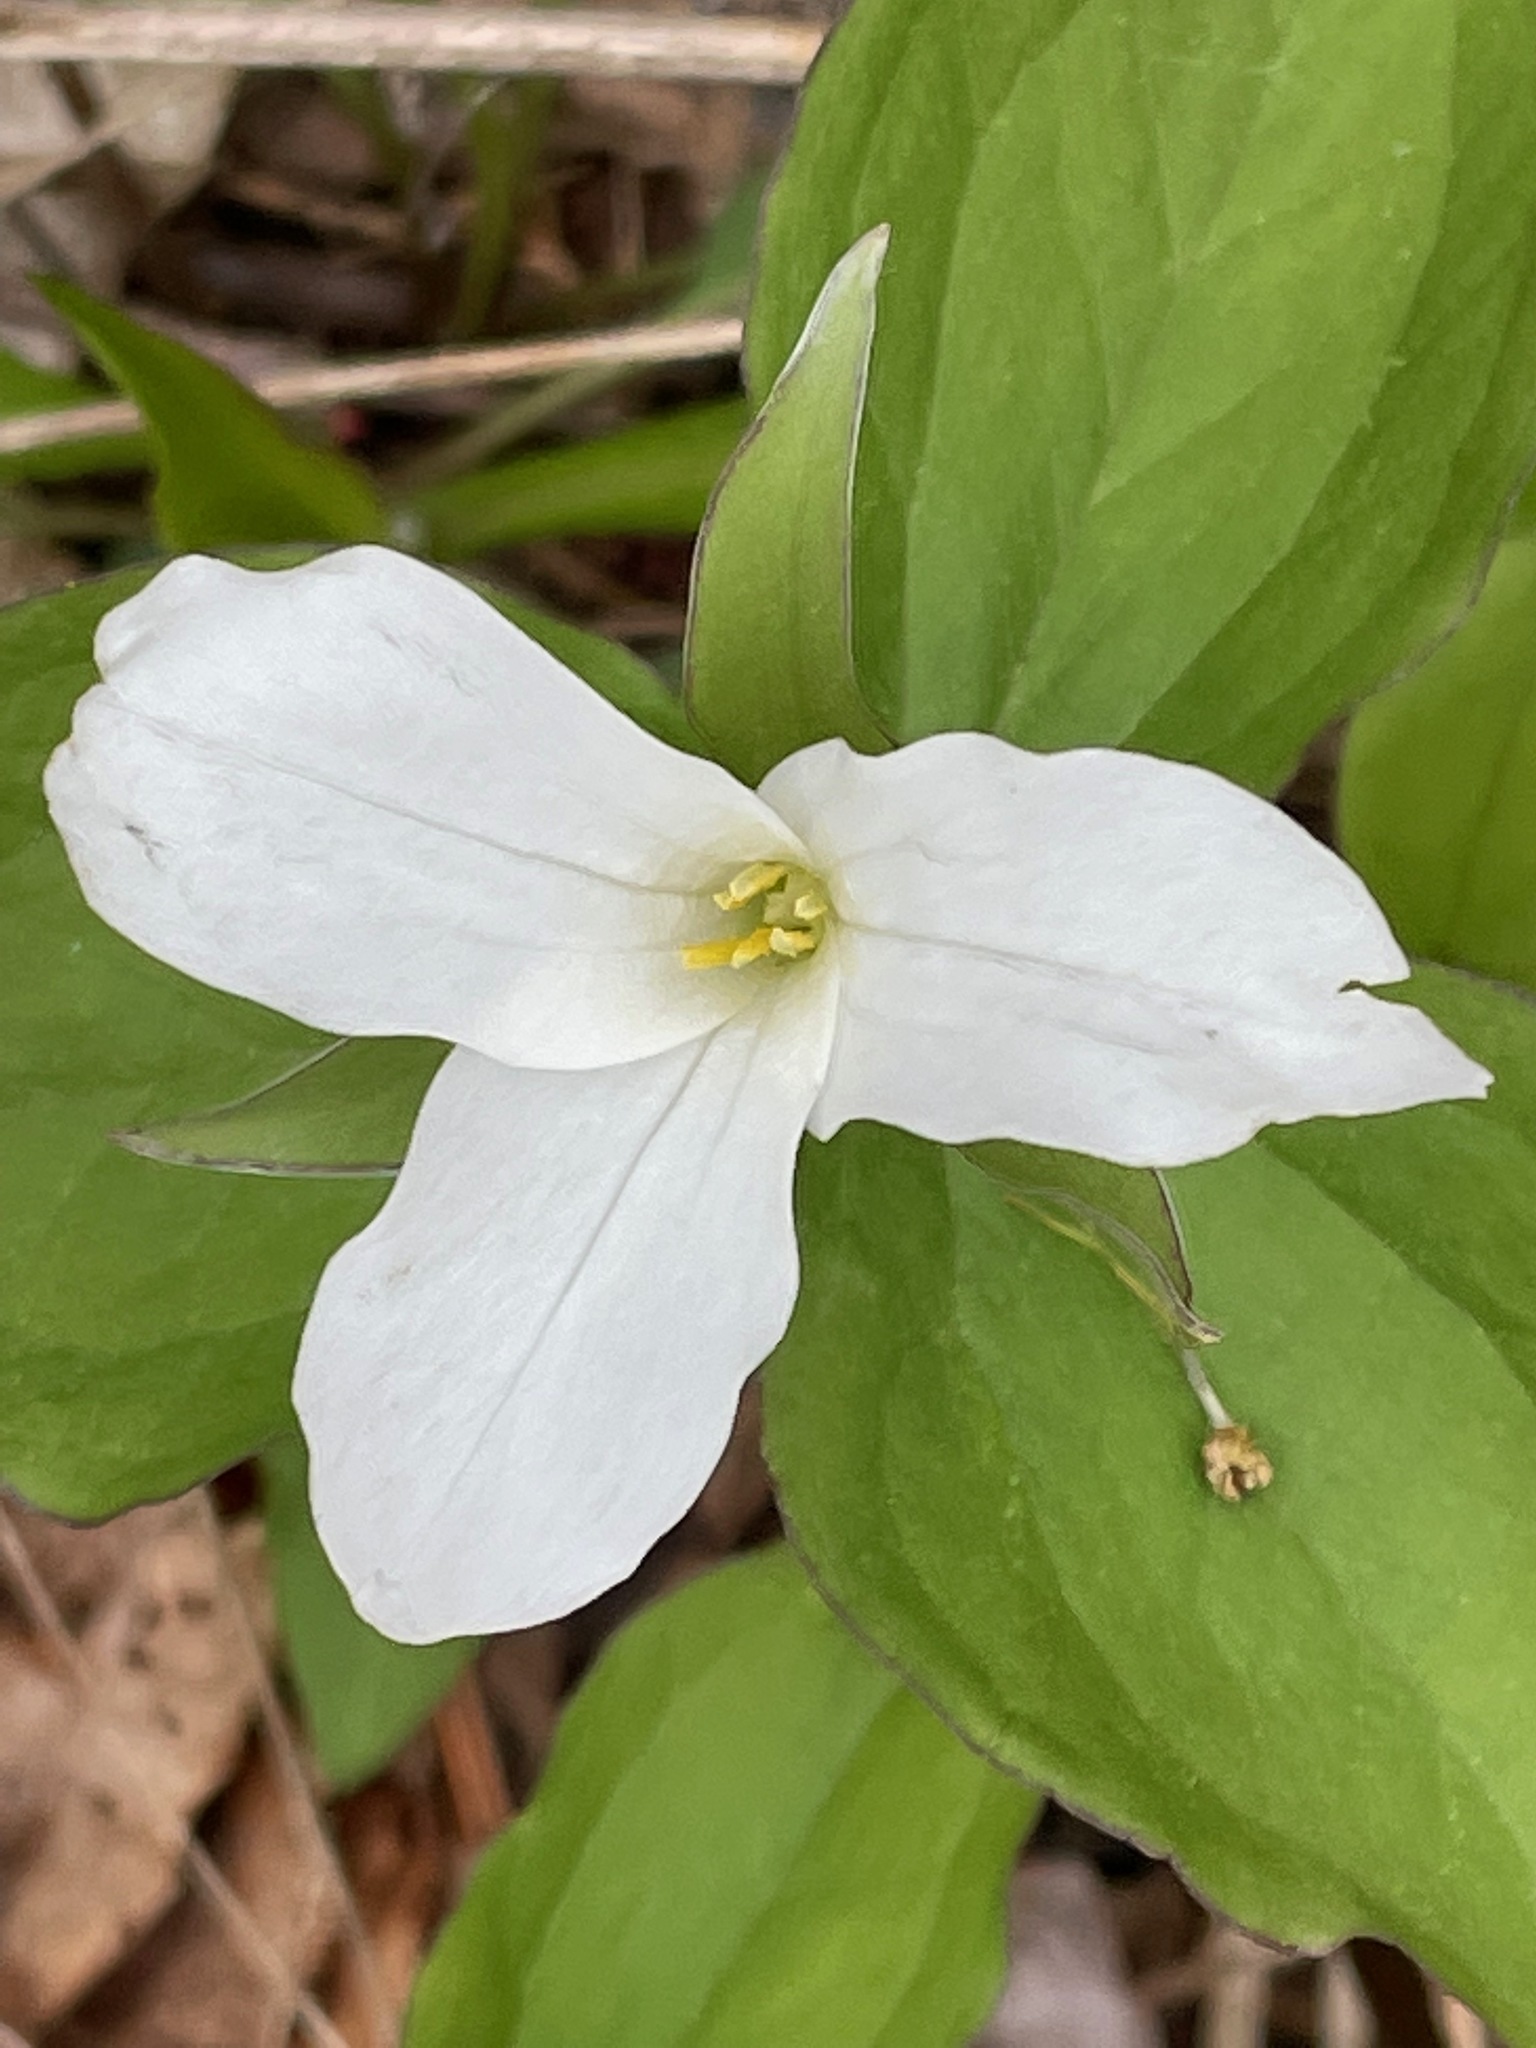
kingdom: Plantae
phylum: Tracheophyta
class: Liliopsida
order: Liliales
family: Melanthiaceae
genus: Trillium
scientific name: Trillium grandiflorum
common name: Great white trillium
